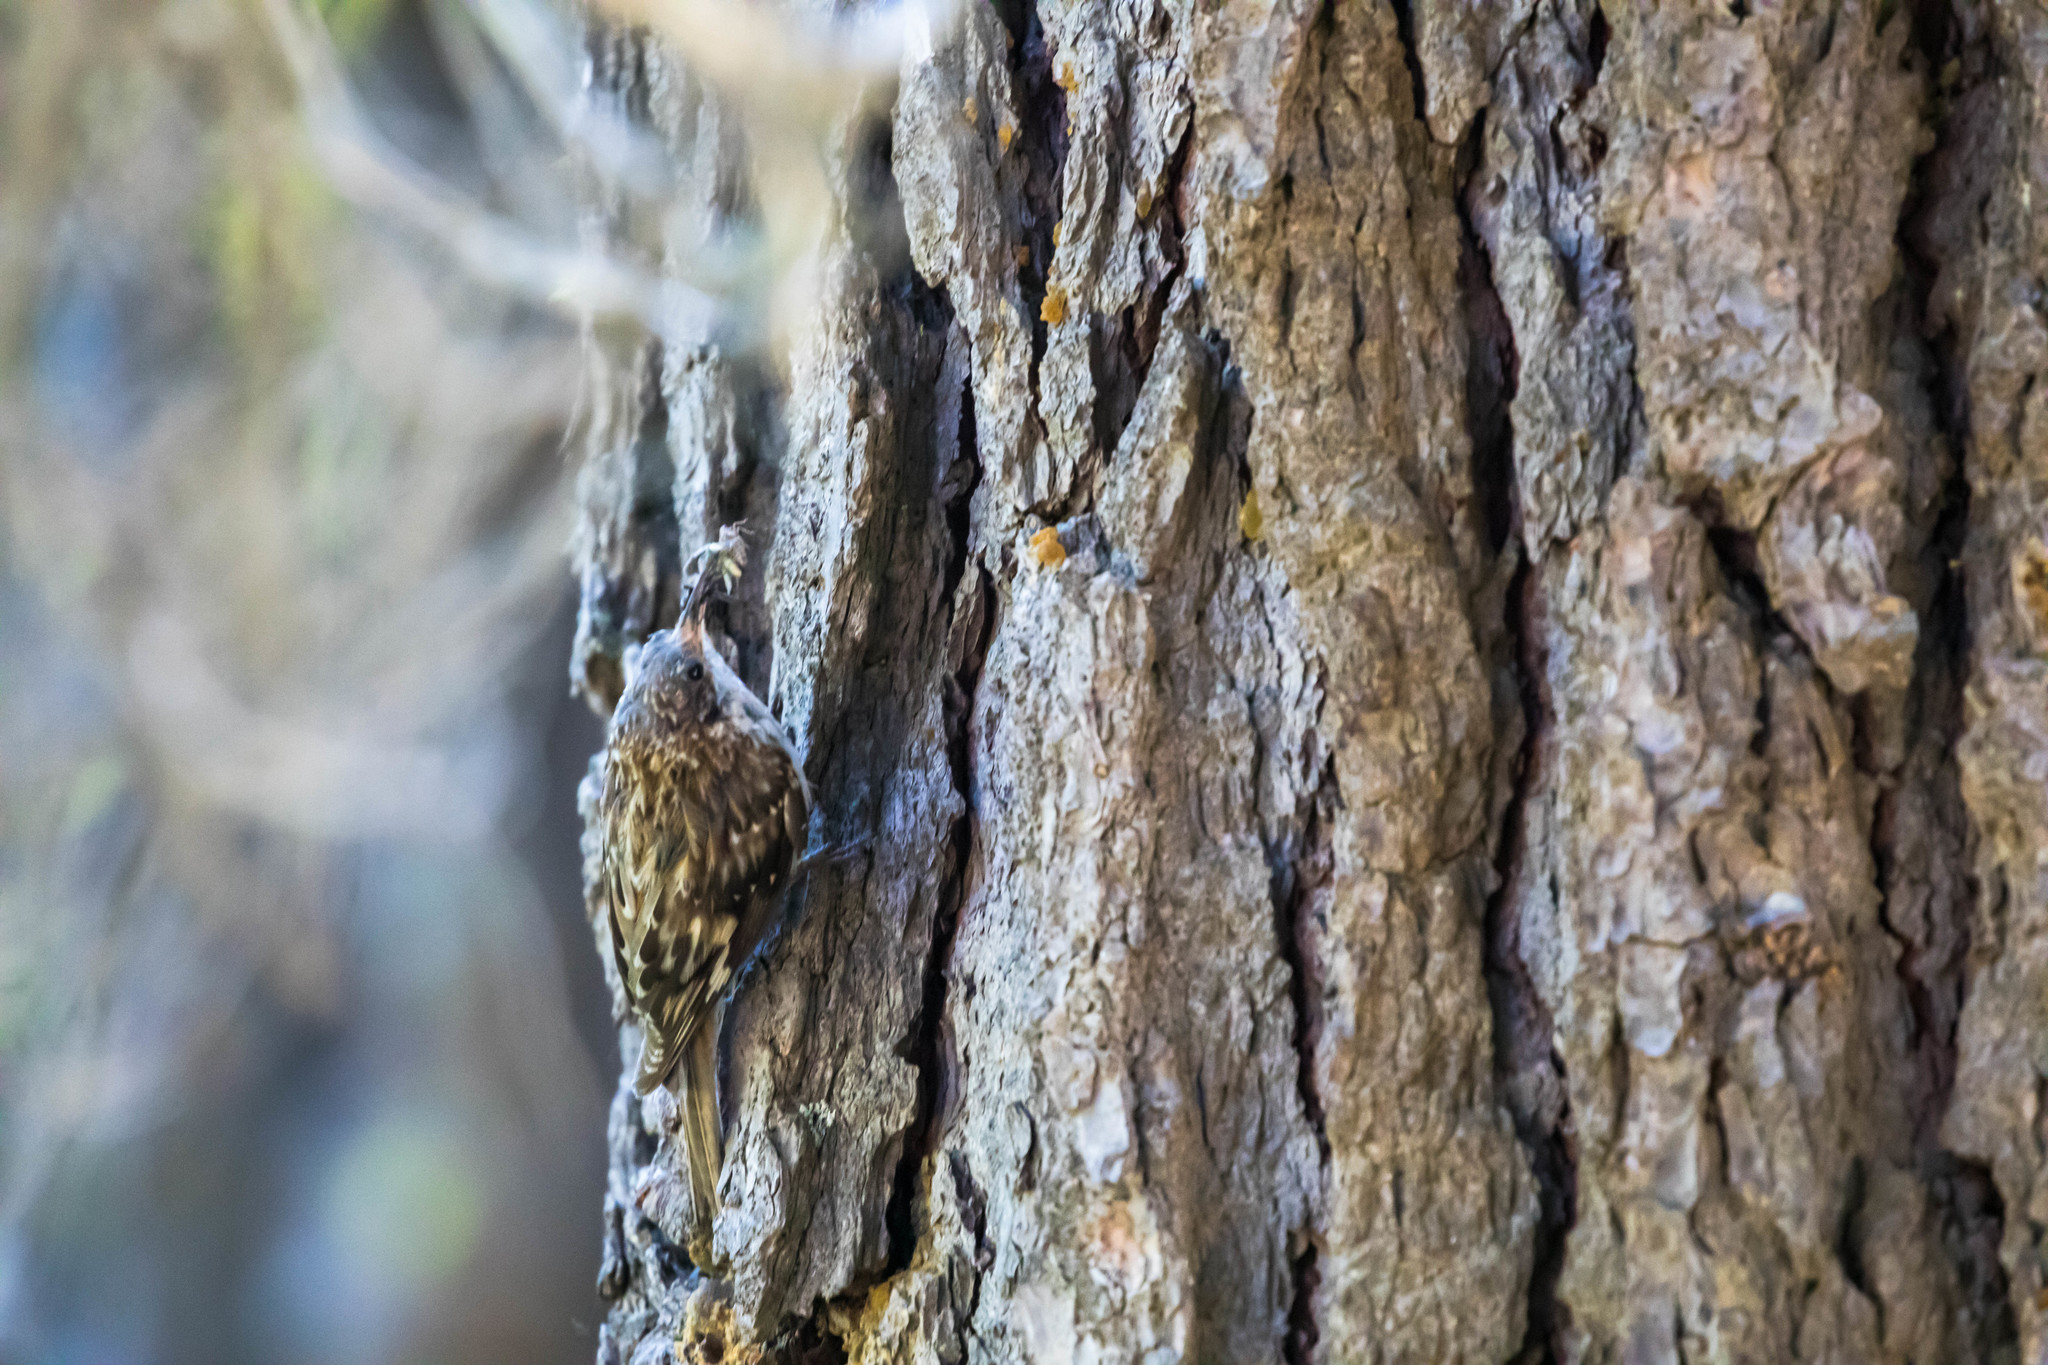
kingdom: Animalia
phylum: Chordata
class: Aves
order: Passeriformes
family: Certhiidae
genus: Certhia
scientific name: Certhia americana
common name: Brown creeper
